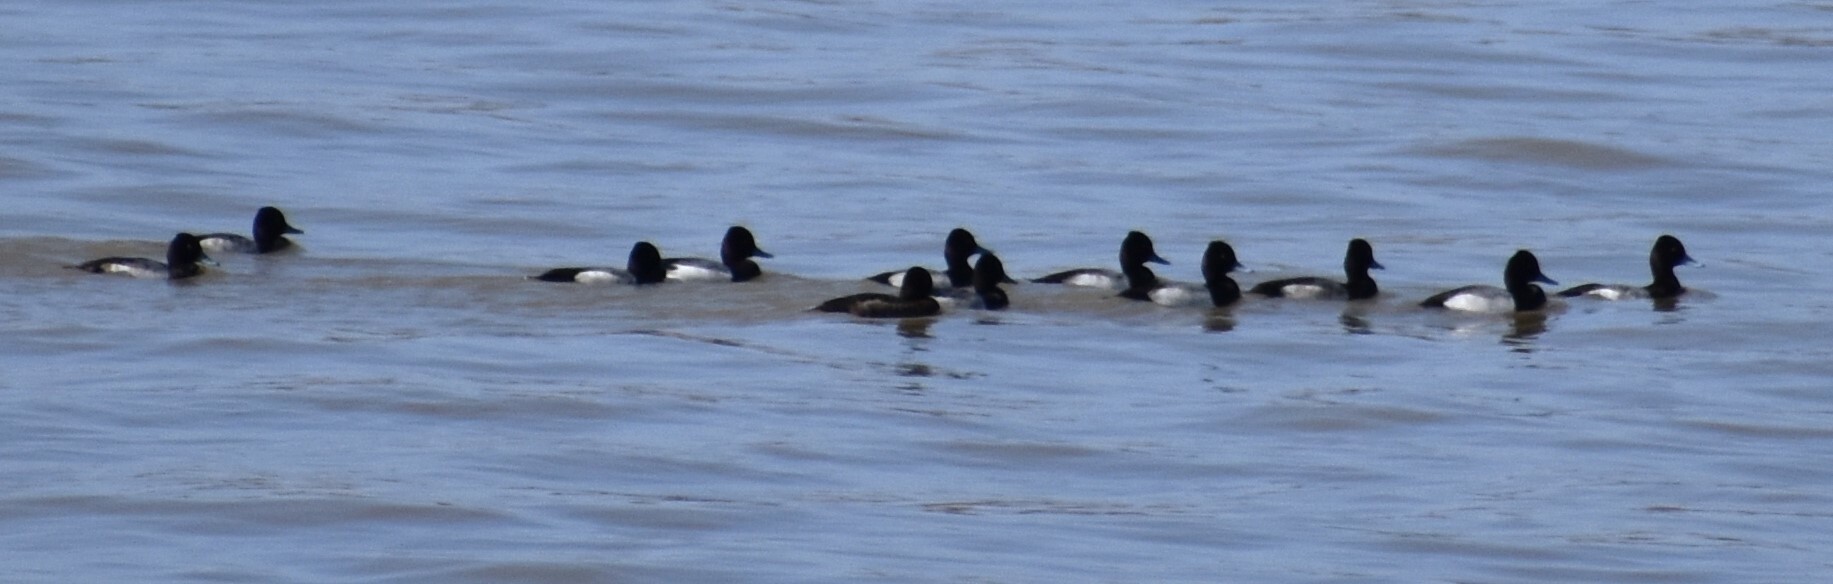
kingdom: Animalia
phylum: Chordata
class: Aves
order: Anseriformes
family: Anatidae
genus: Aythya
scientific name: Aythya affinis
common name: Lesser scaup
